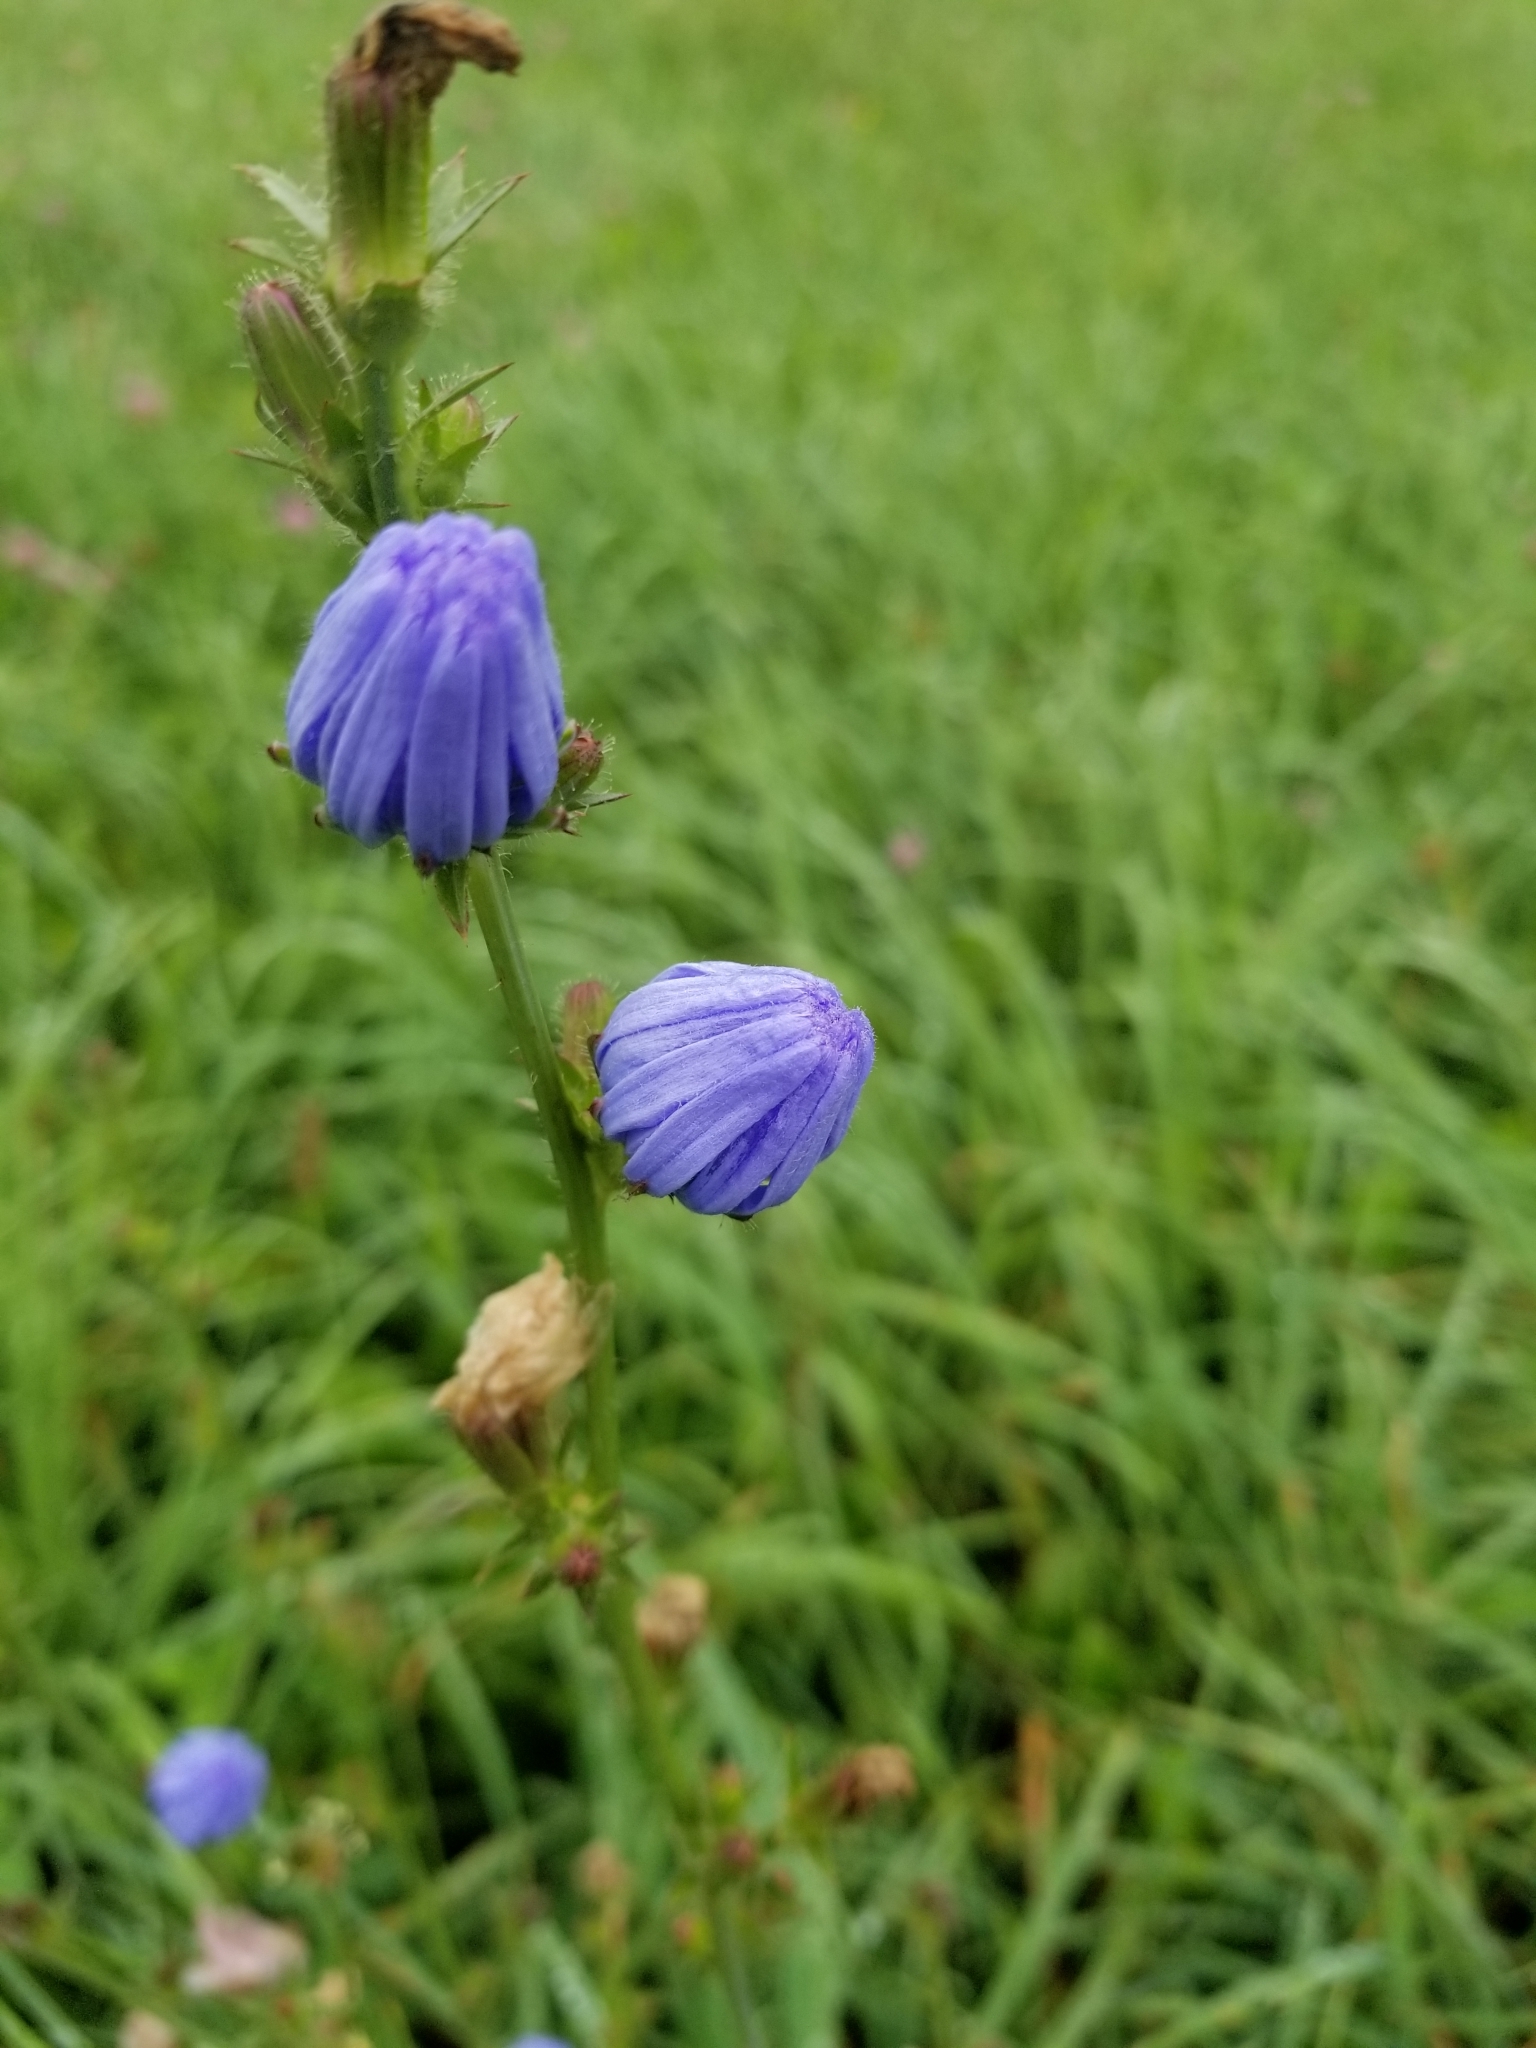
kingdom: Plantae
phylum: Tracheophyta
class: Magnoliopsida
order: Asterales
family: Asteraceae
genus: Cichorium
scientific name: Cichorium intybus
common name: Chicory
